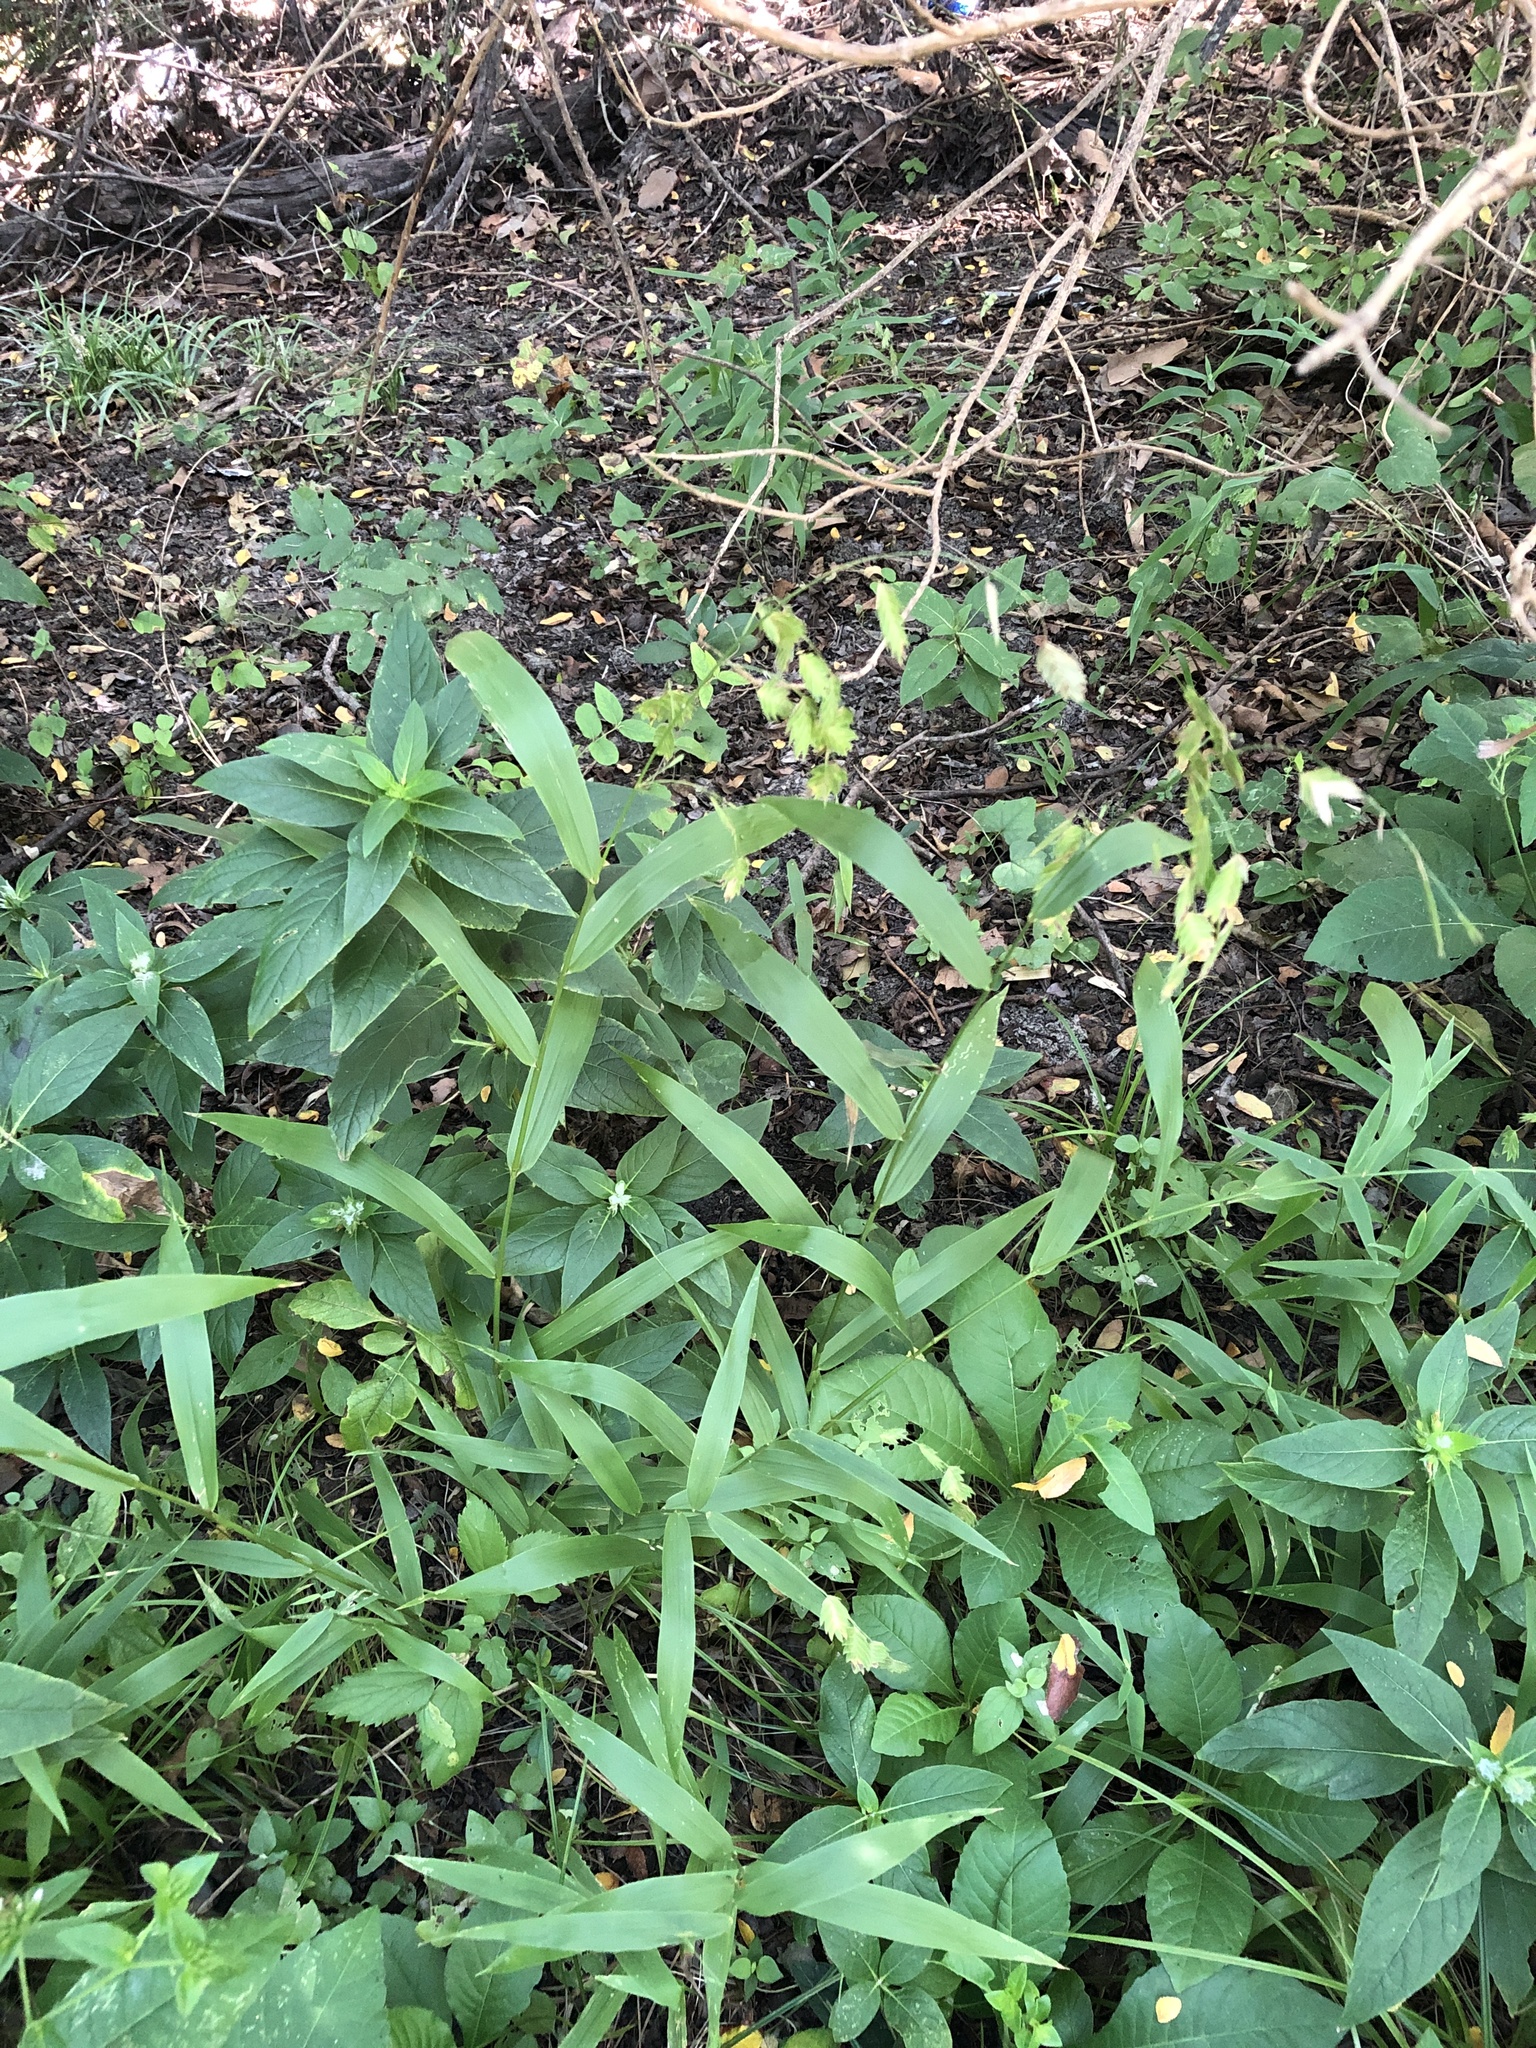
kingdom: Plantae
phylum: Tracheophyta
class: Liliopsida
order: Poales
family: Poaceae
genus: Chasmanthium
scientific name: Chasmanthium latifolium
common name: Broad-leaved chasmanthium
